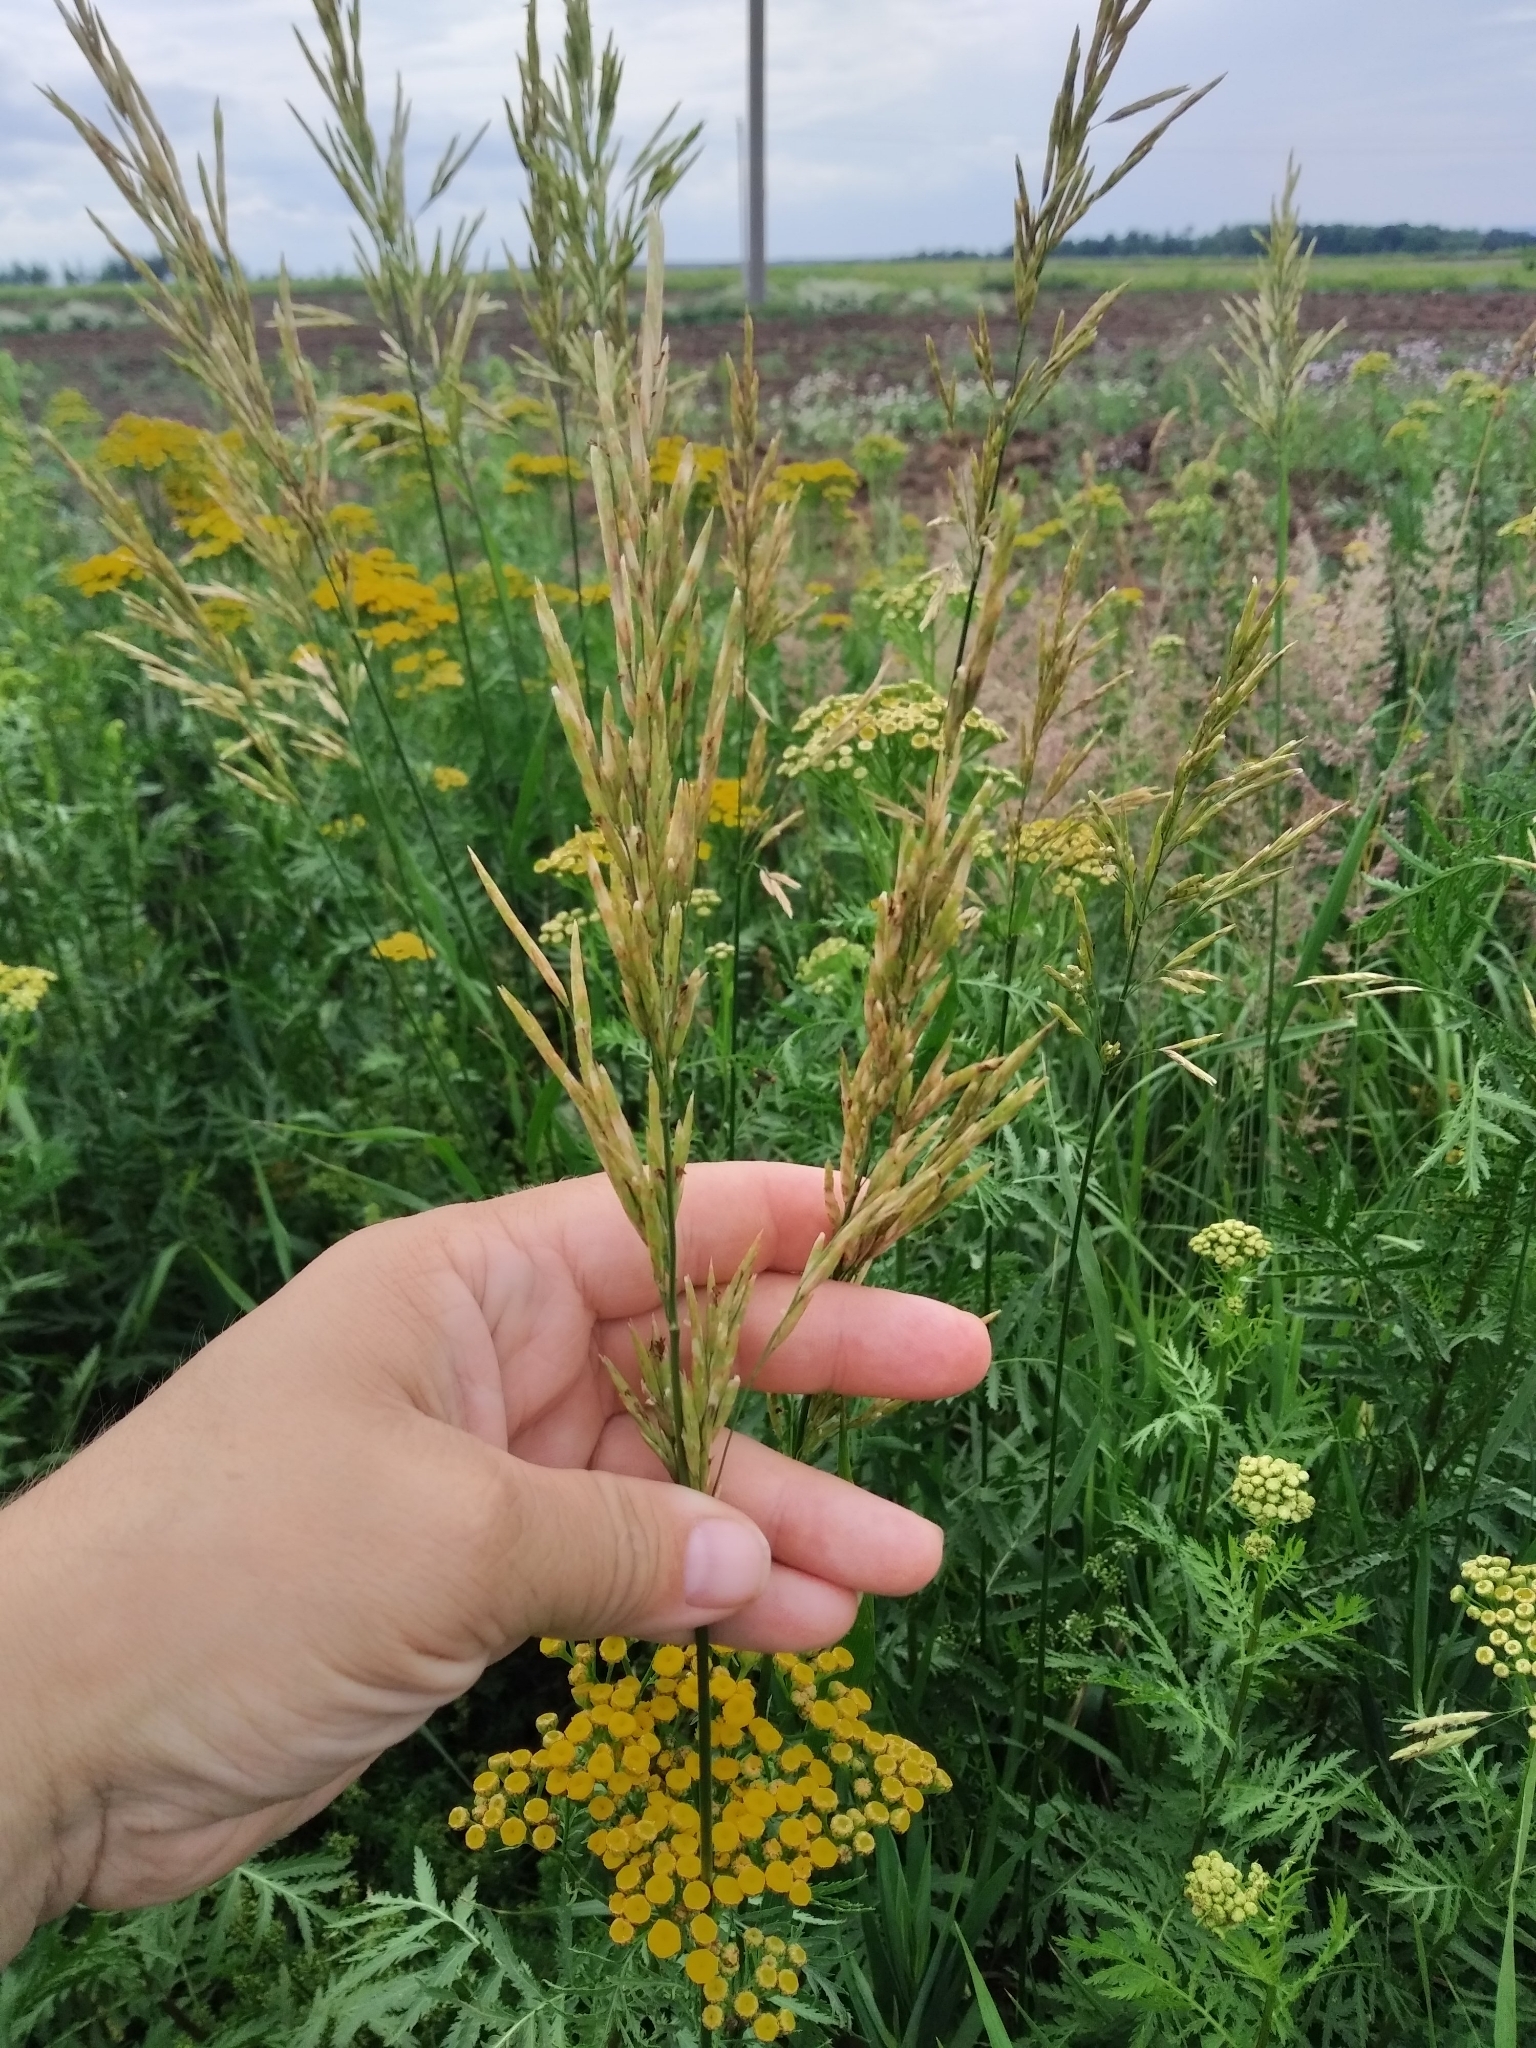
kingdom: Plantae
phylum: Tracheophyta
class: Liliopsida
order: Poales
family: Poaceae
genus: Bromus
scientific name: Bromus inermis
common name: Smooth brome
